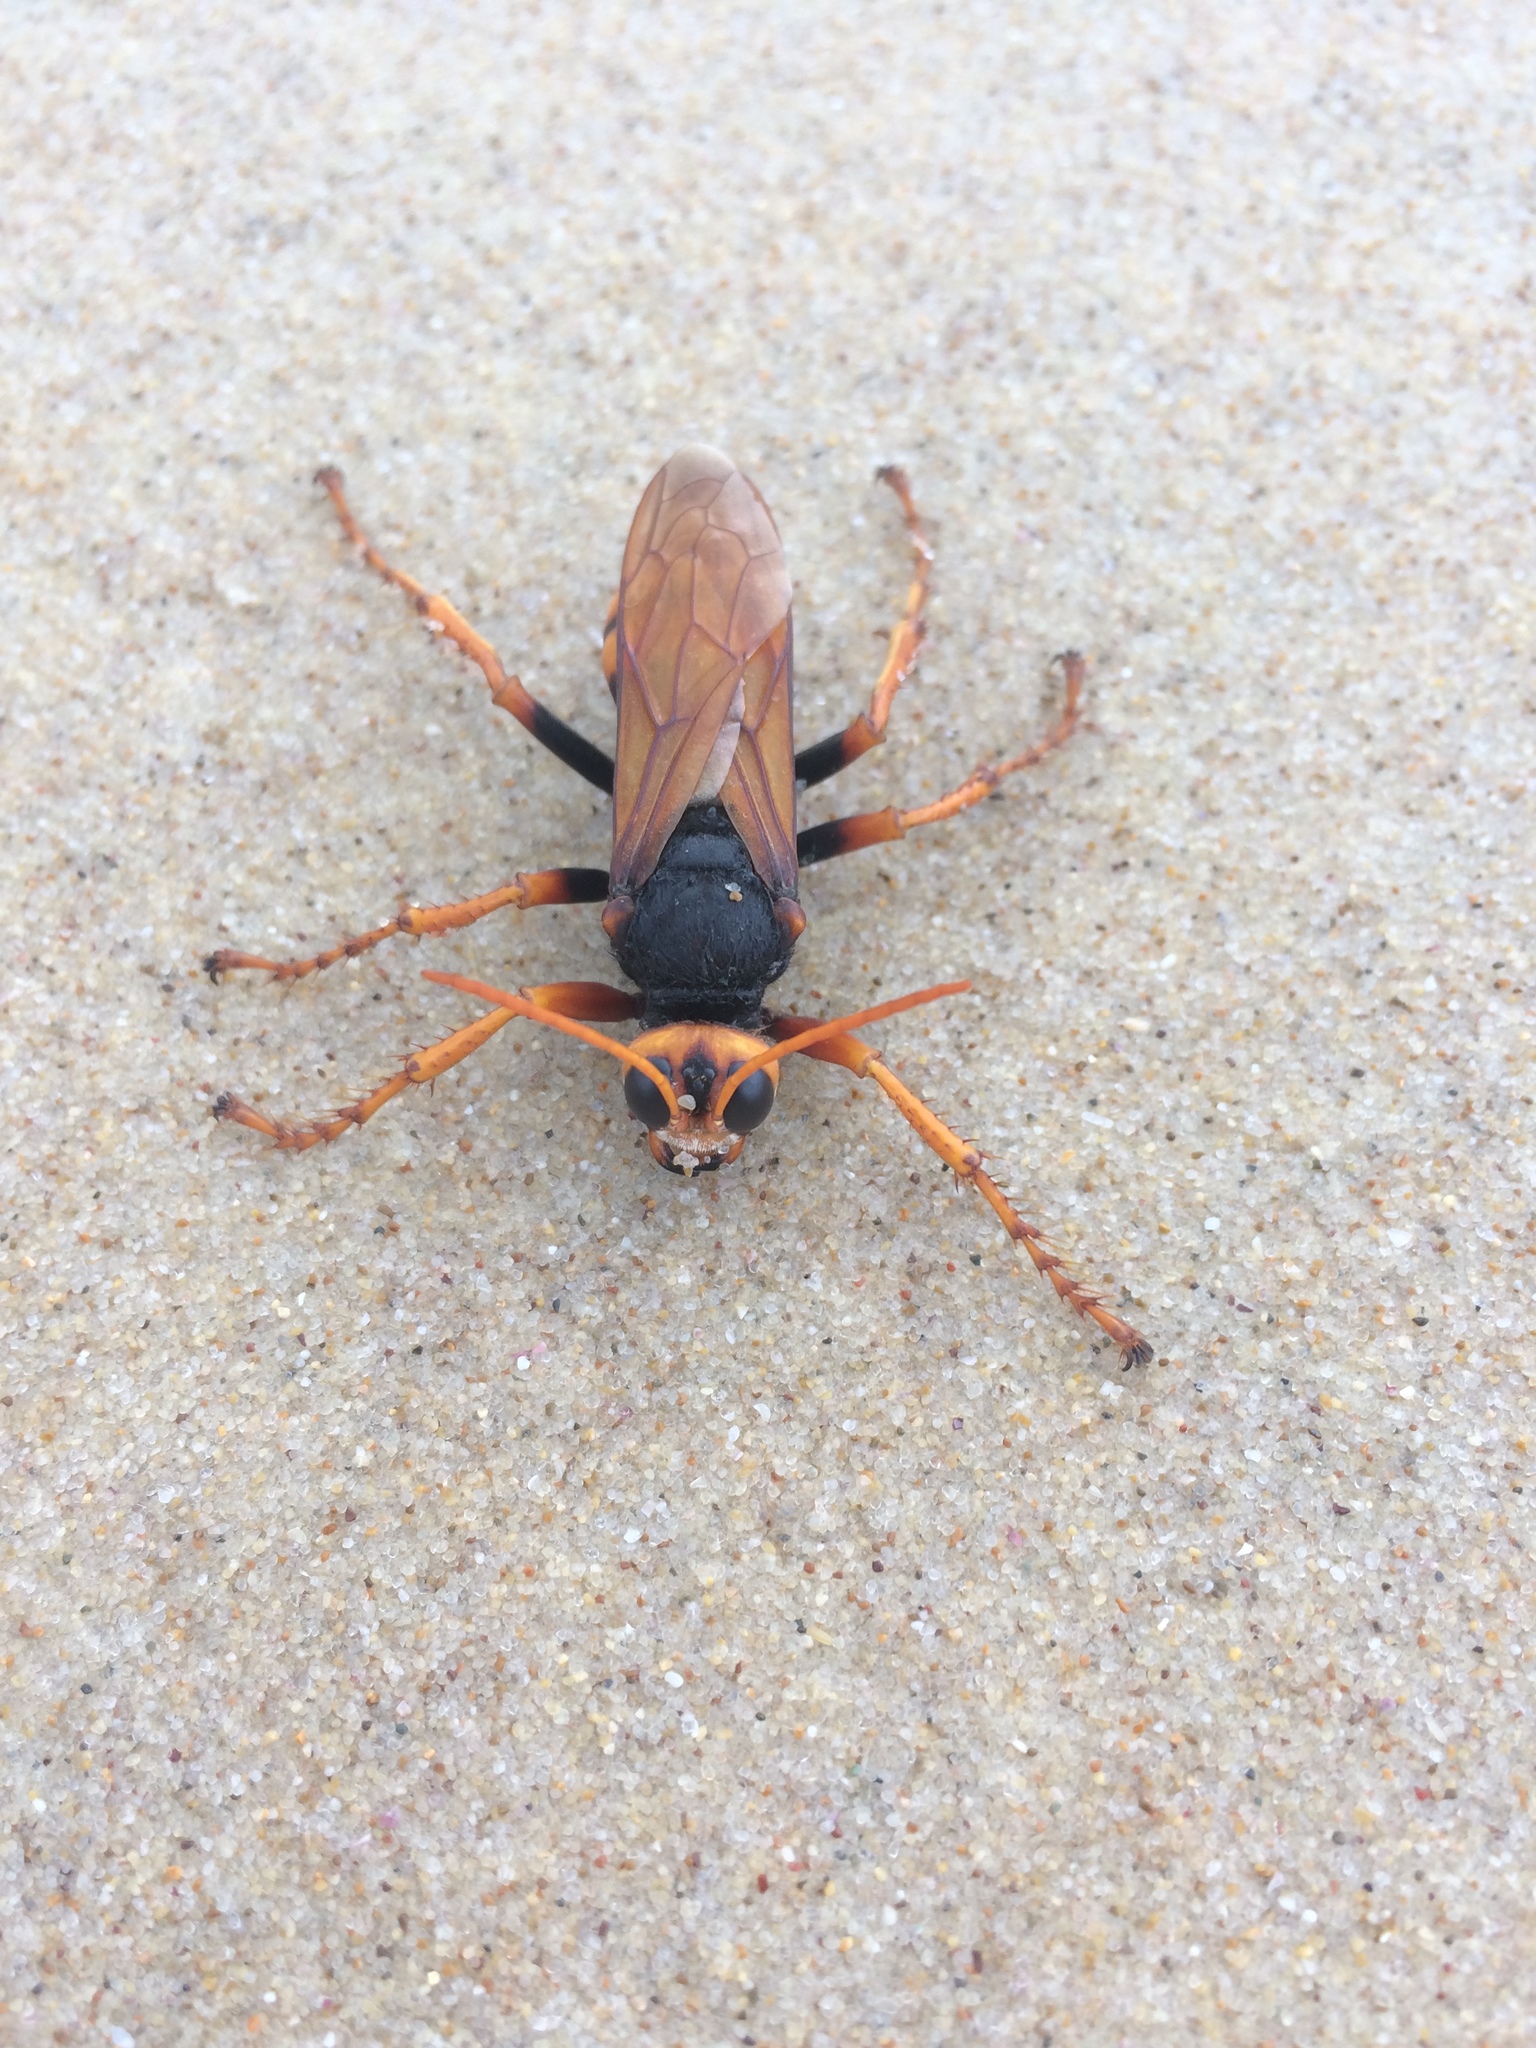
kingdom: Animalia
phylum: Arthropoda
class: Insecta
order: Hymenoptera
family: Crabronidae
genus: Exeirus
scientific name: Exeirus lateritius
